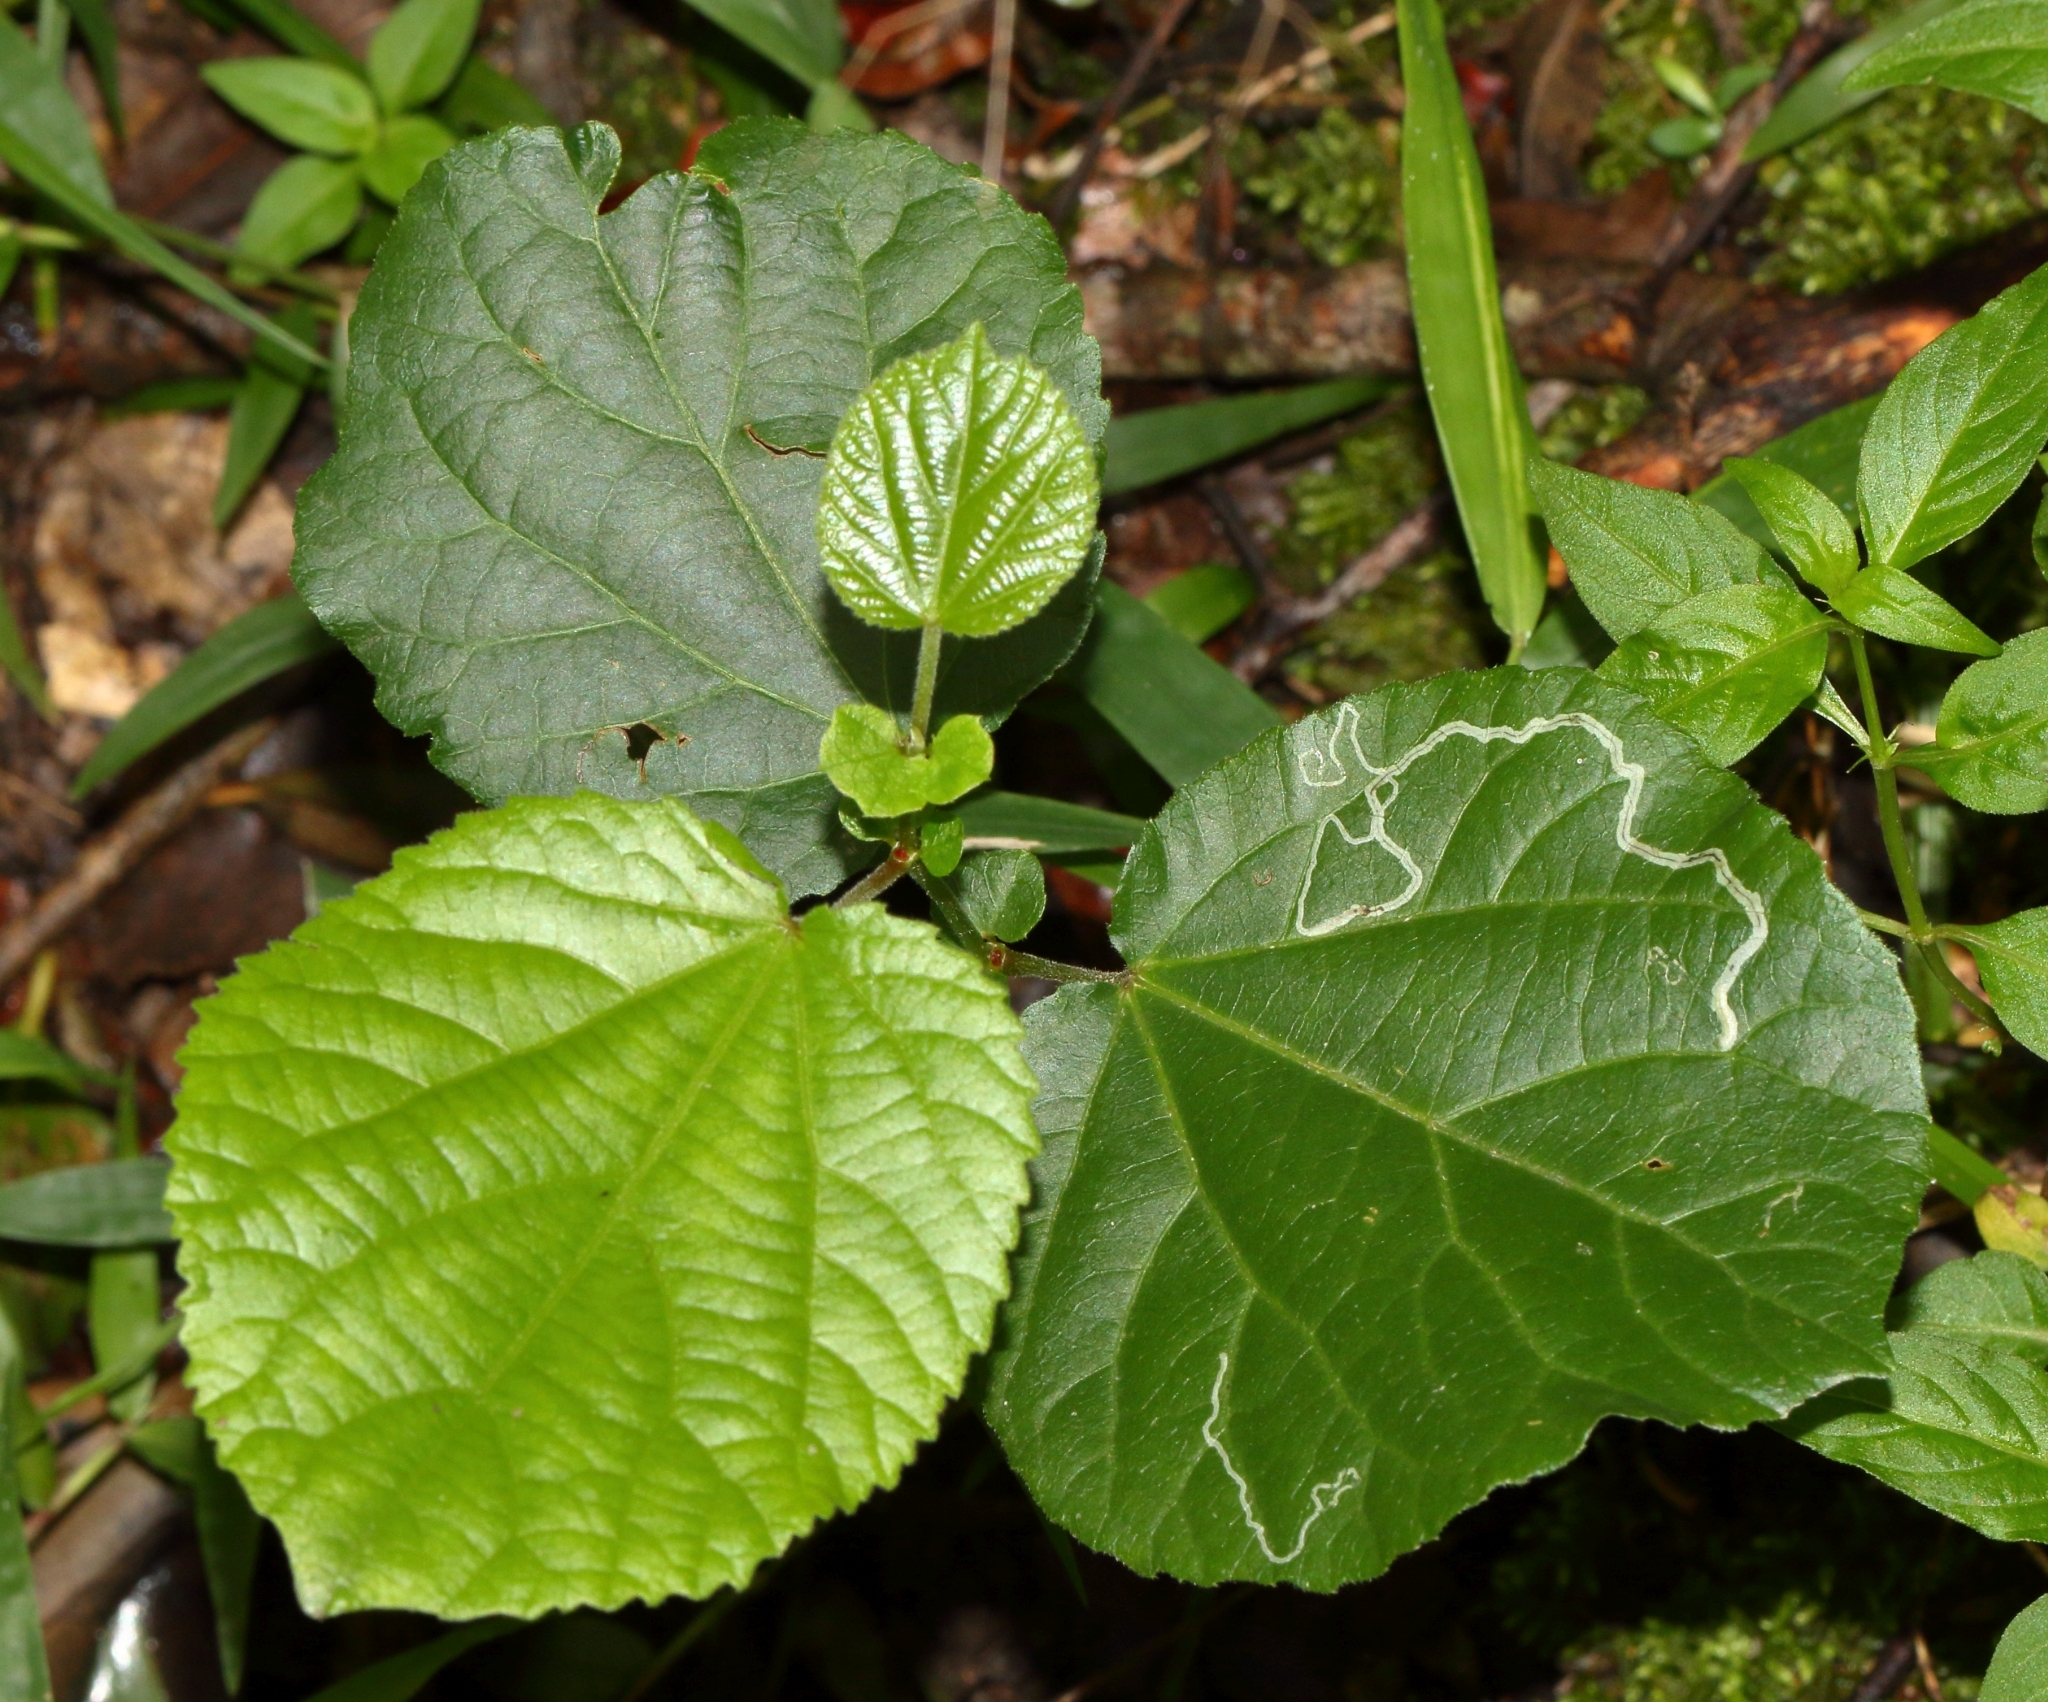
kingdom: Plantae
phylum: Tracheophyta
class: Magnoliopsida
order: Malpighiales
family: Salicaceae
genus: Trimeria
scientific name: Trimeria grandifolia
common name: Wild mulberry
